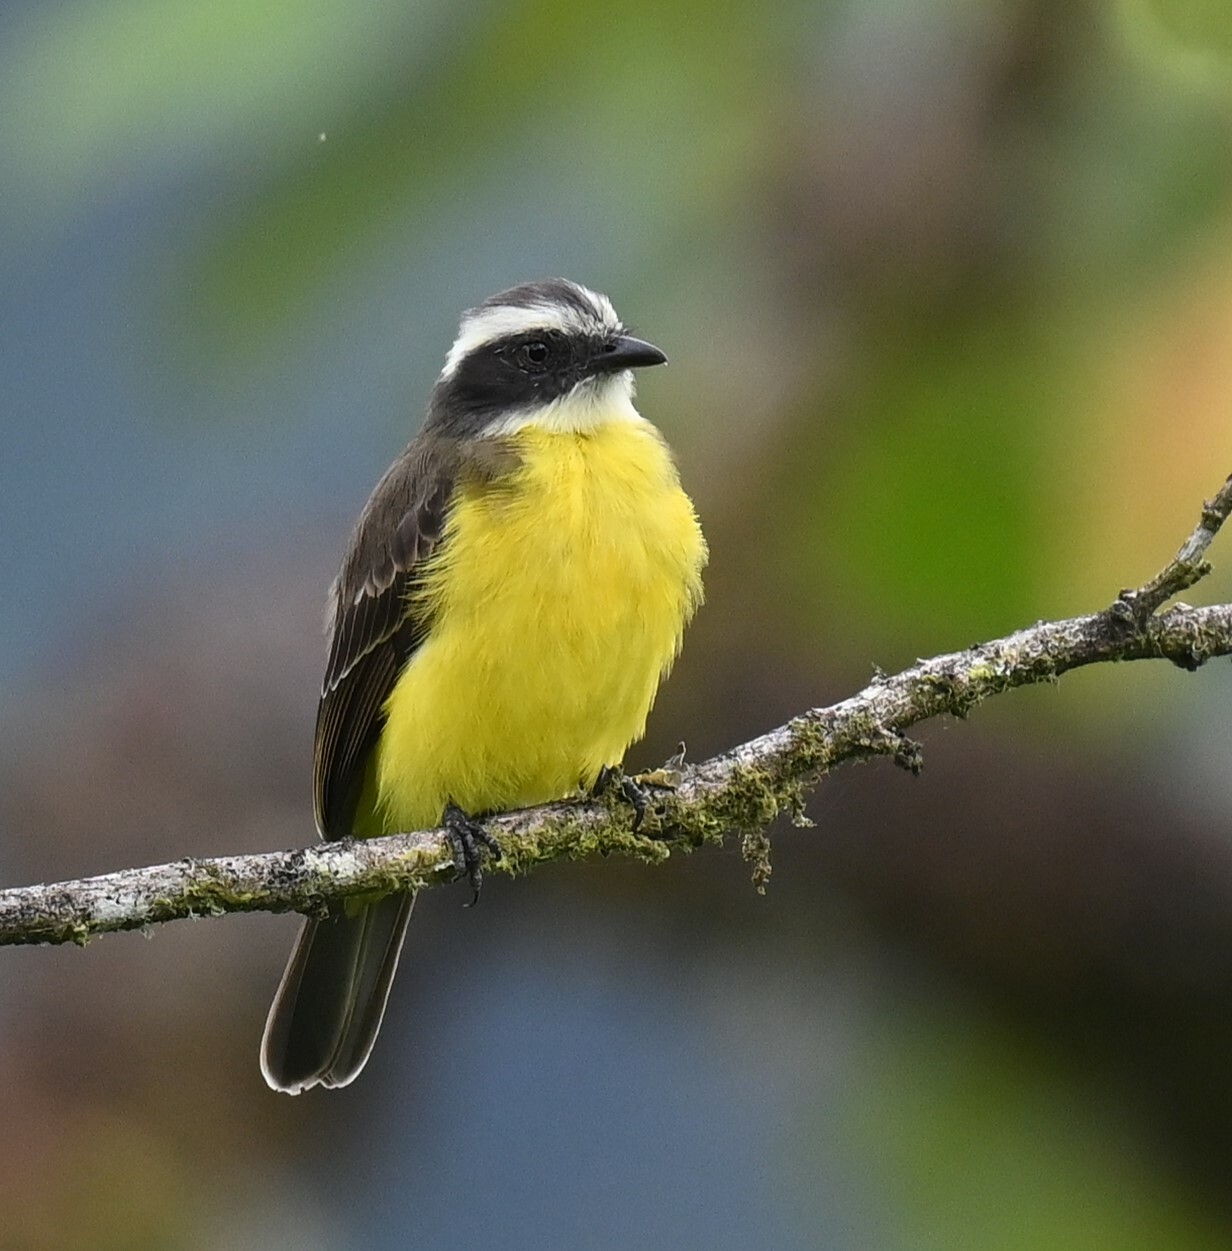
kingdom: Animalia
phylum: Chordata
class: Aves
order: Passeriformes
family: Tyrannidae
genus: Myiozetetes
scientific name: Myiozetetes similis
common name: Social flycatcher
